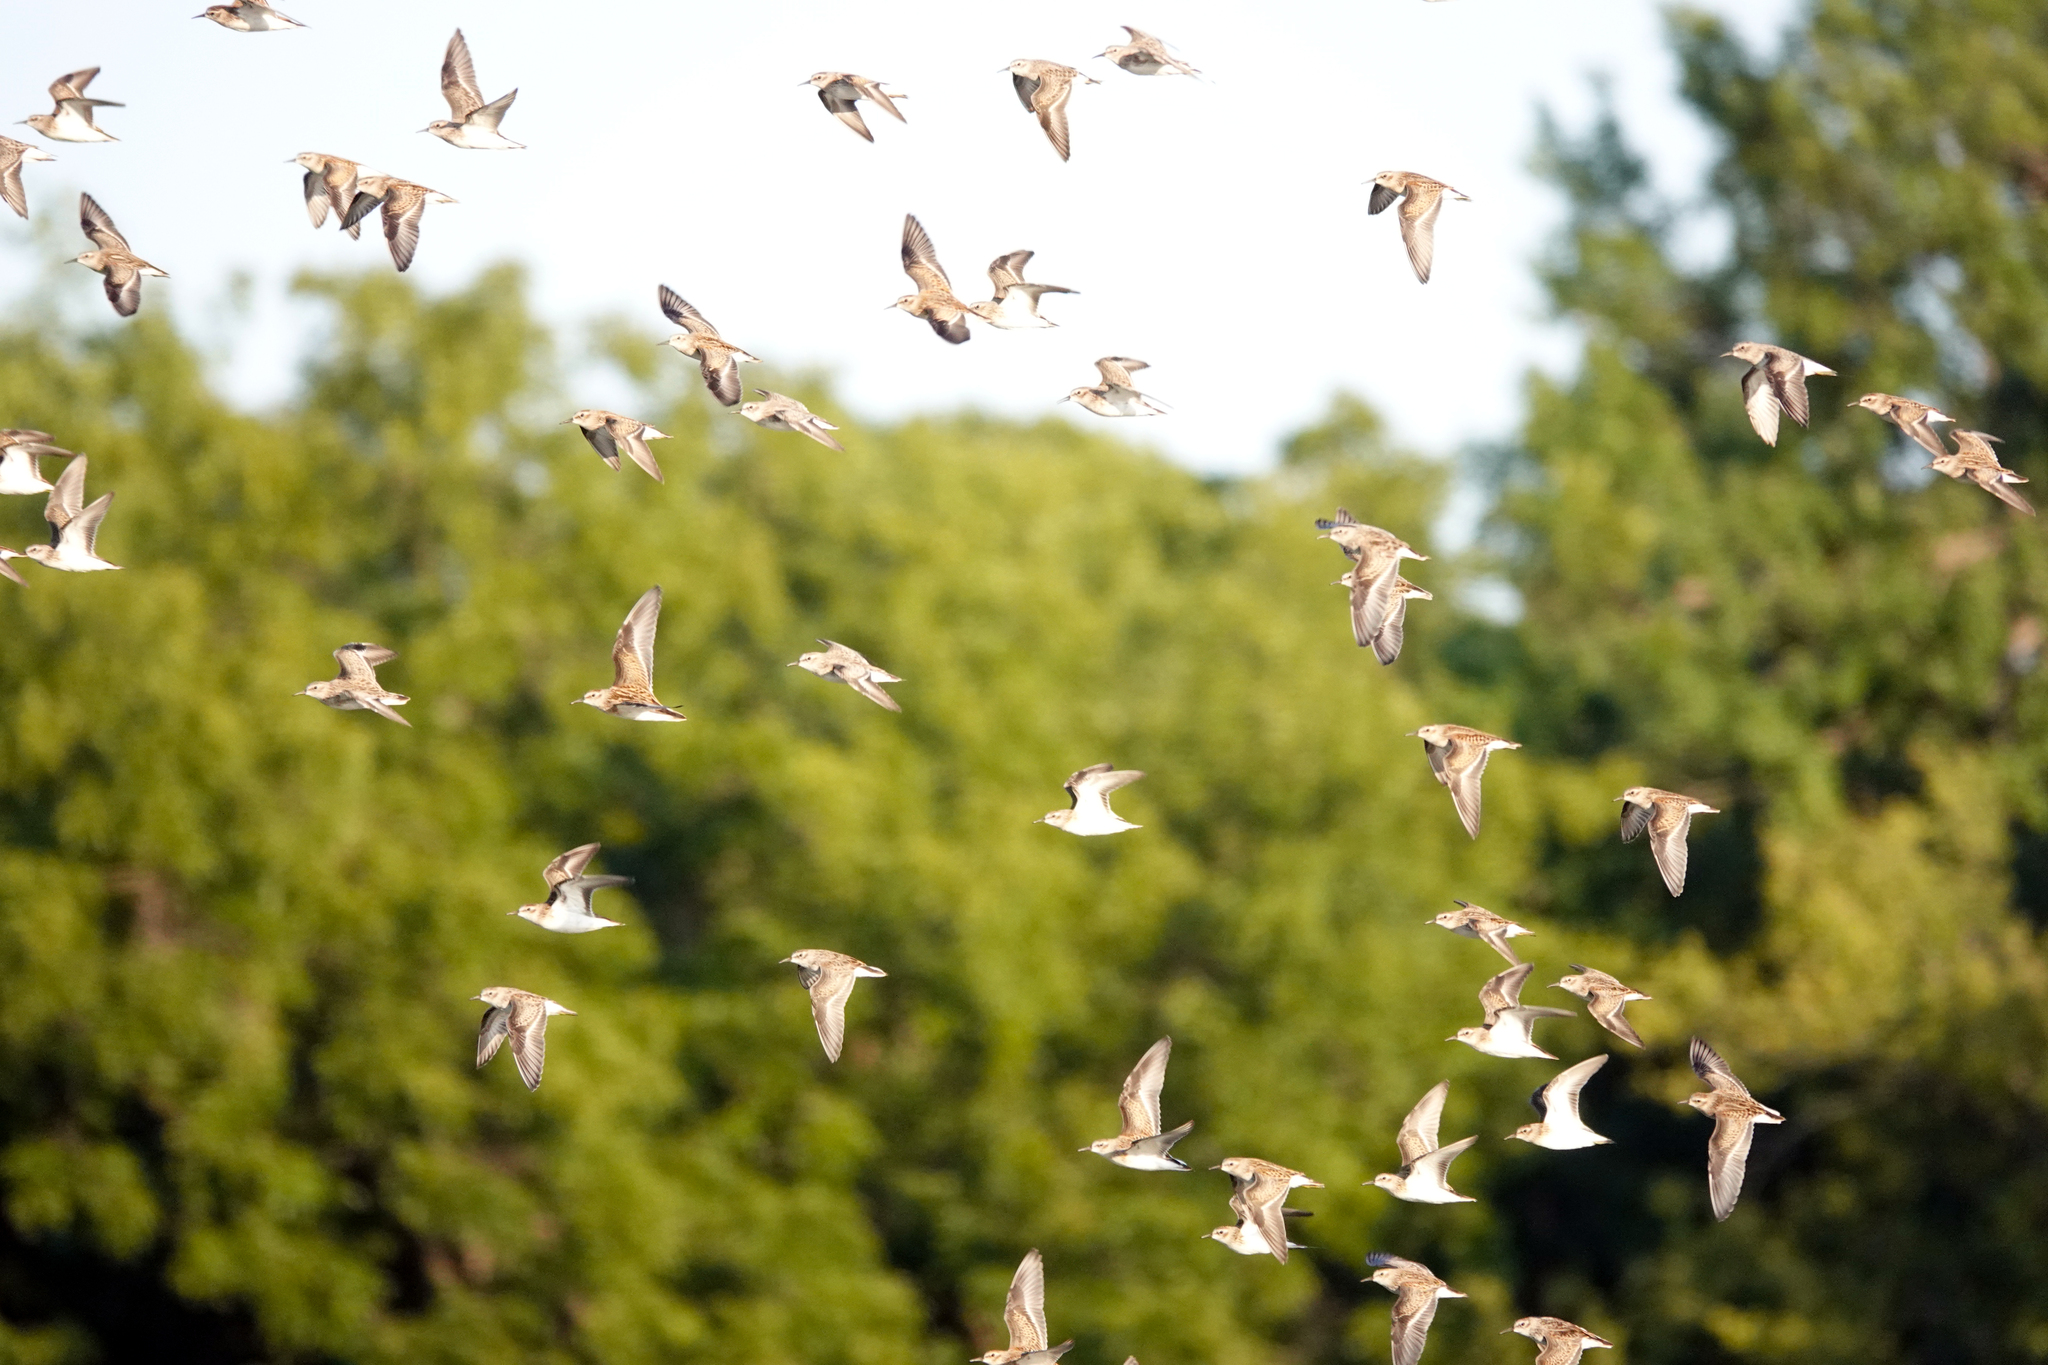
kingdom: Animalia
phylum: Chordata
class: Aves
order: Charadriiformes
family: Scolopacidae
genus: Calidris
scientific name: Calidris minutilla
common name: Least sandpiper
